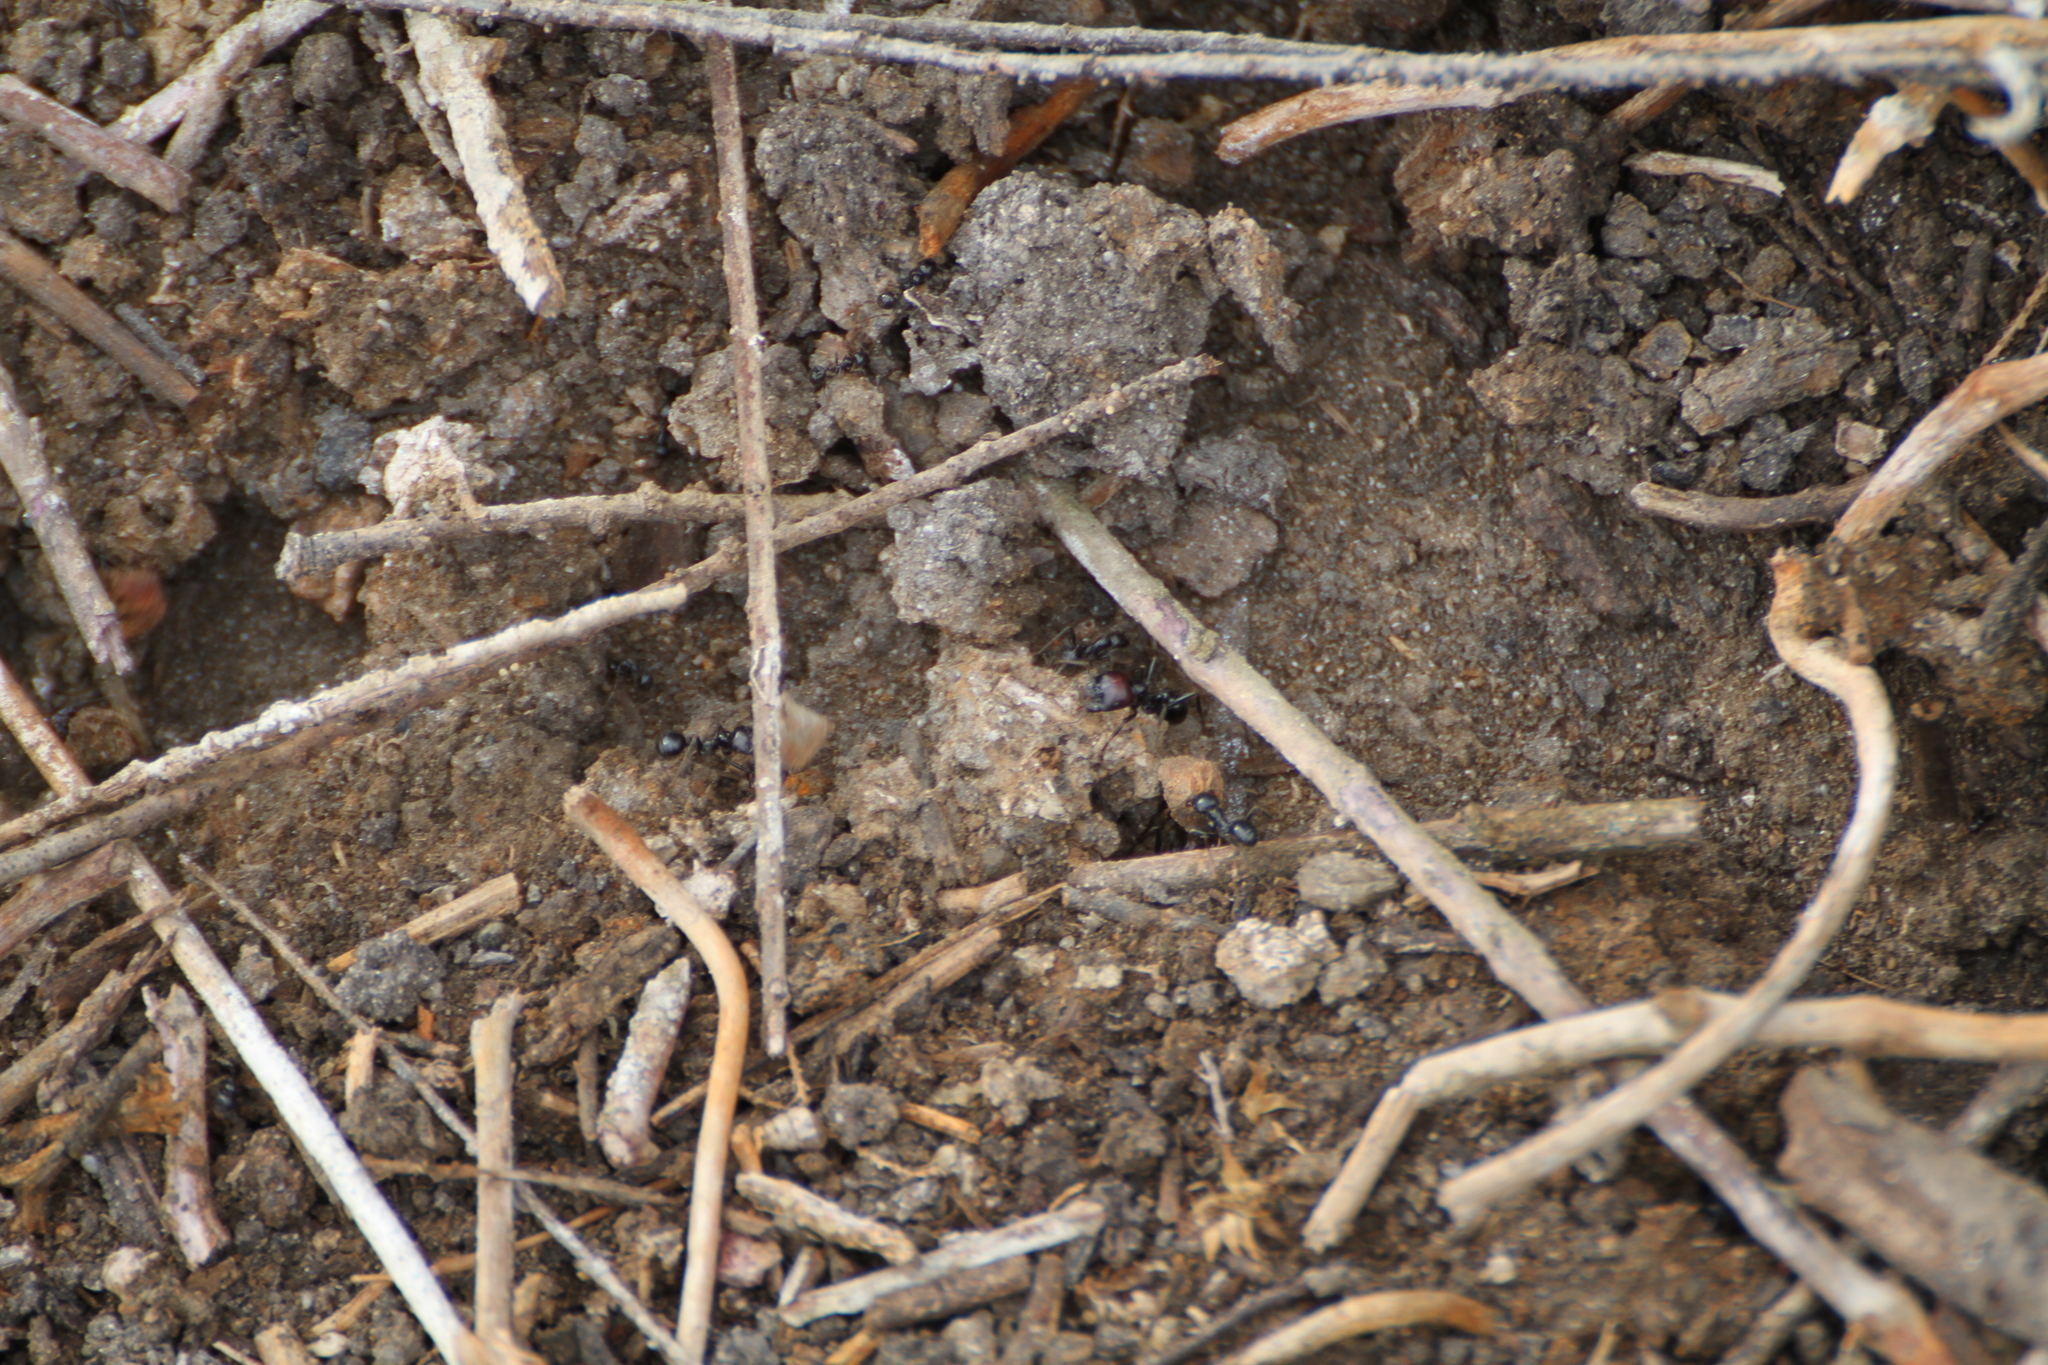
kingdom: Animalia
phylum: Arthropoda
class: Insecta
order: Hymenoptera
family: Formicidae
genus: Messor
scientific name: Messor barbarus
